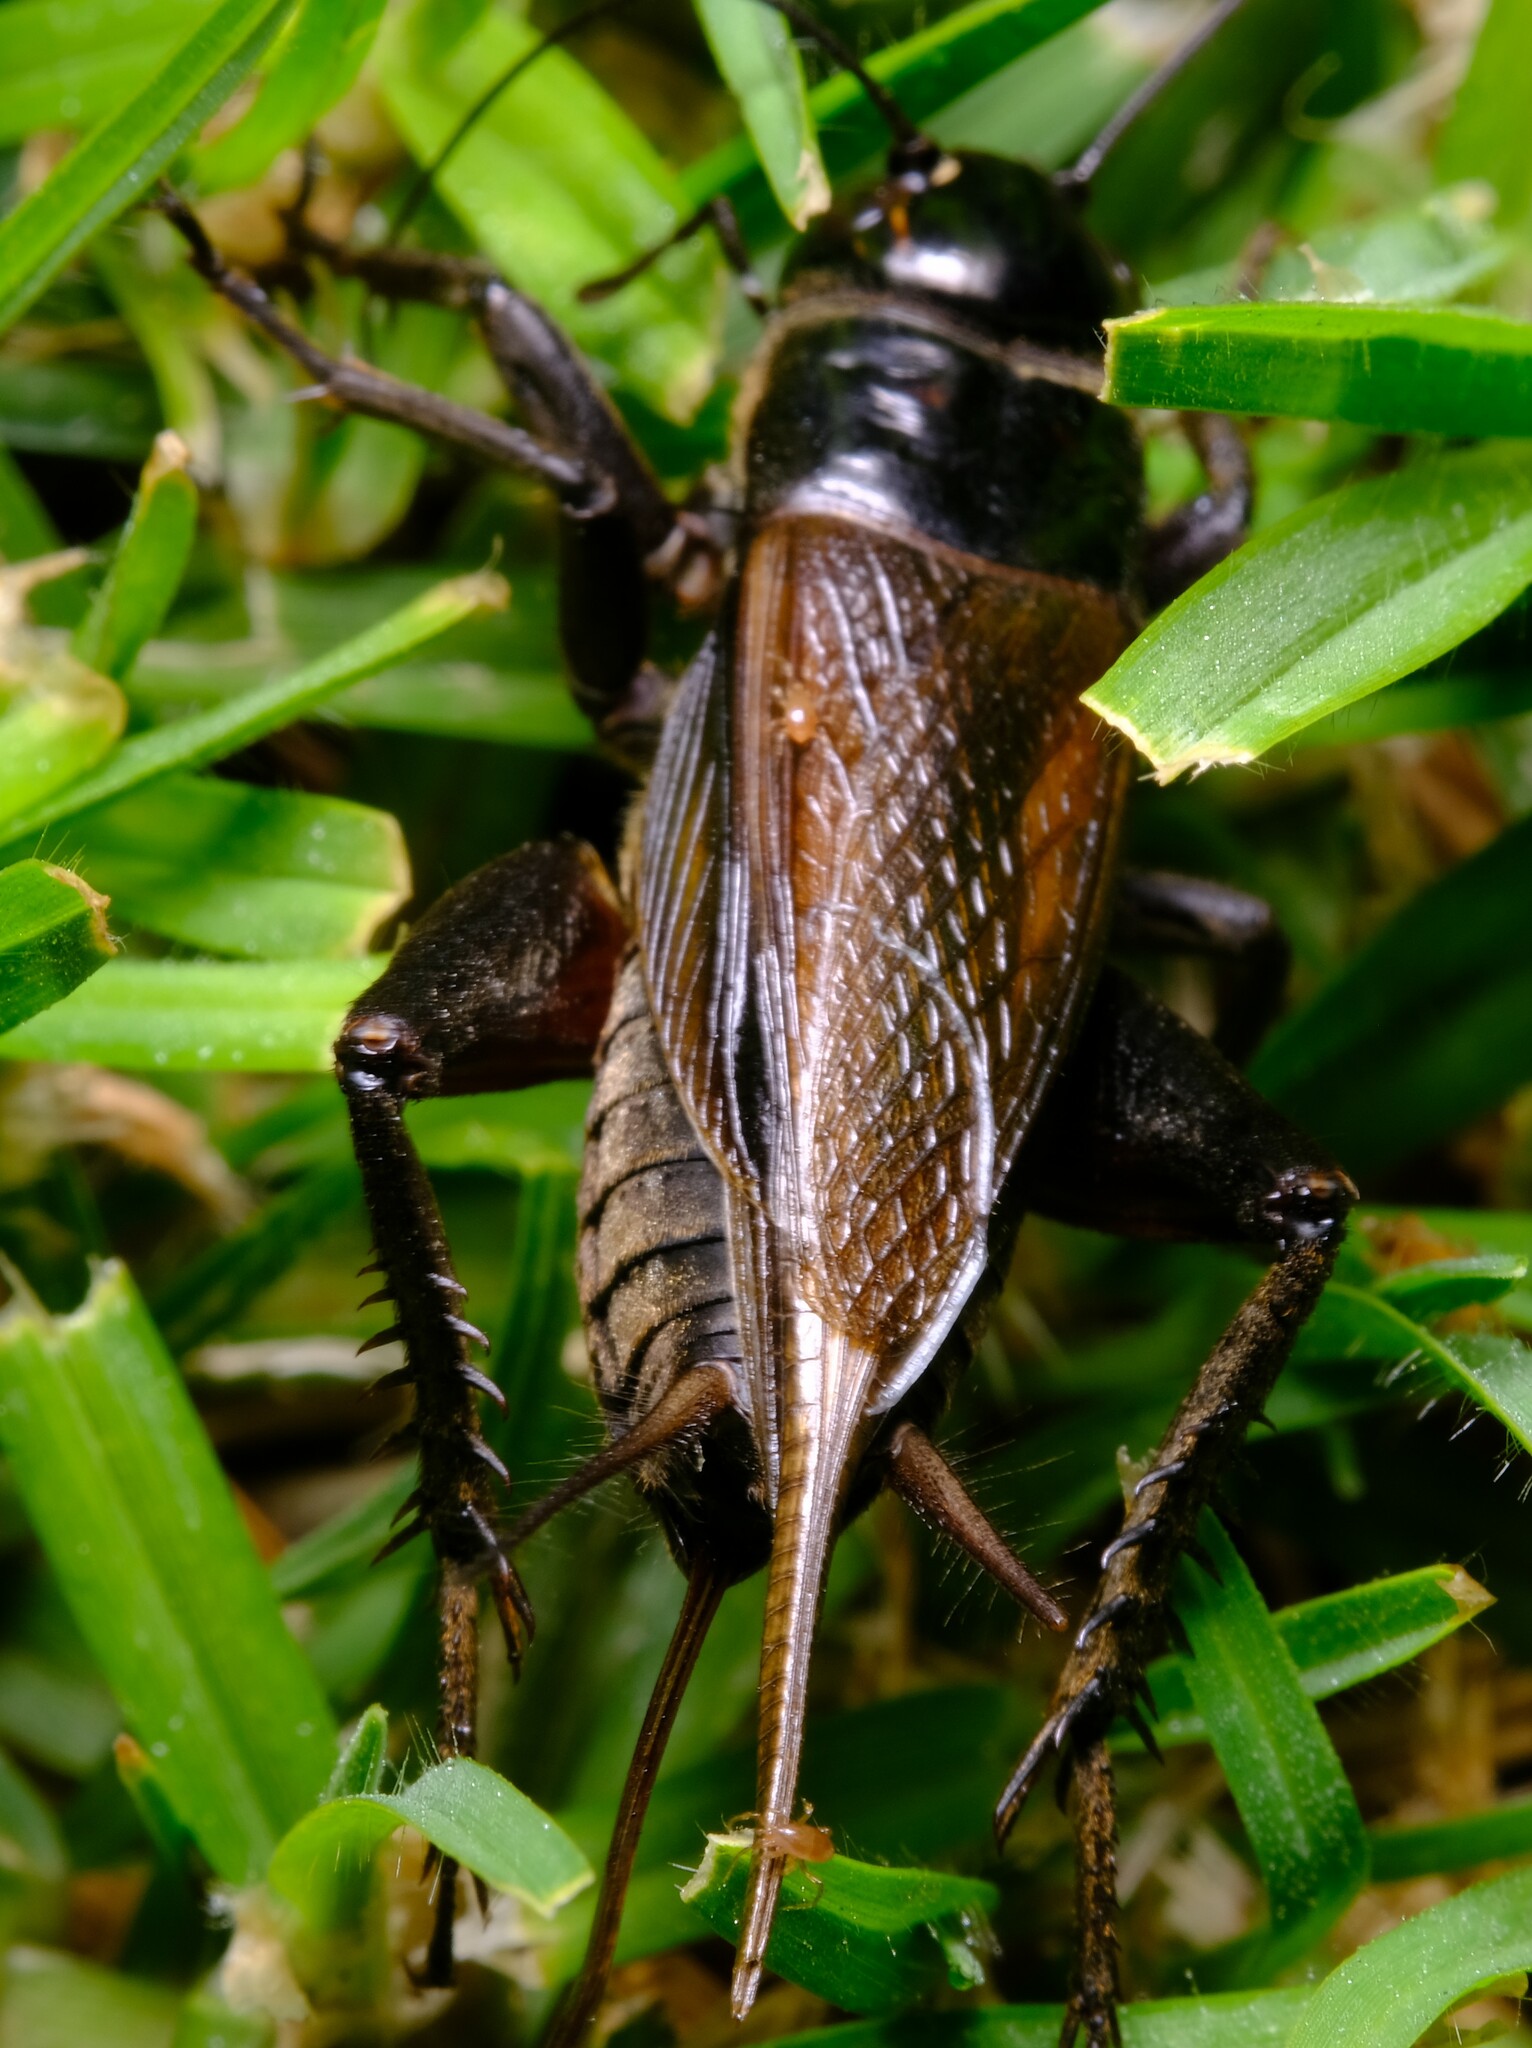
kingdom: Animalia
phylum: Arthropoda
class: Insecta
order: Orthoptera
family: Gryllidae
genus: Teleogryllus
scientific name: Teleogryllus commodus
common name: Black field cricket
